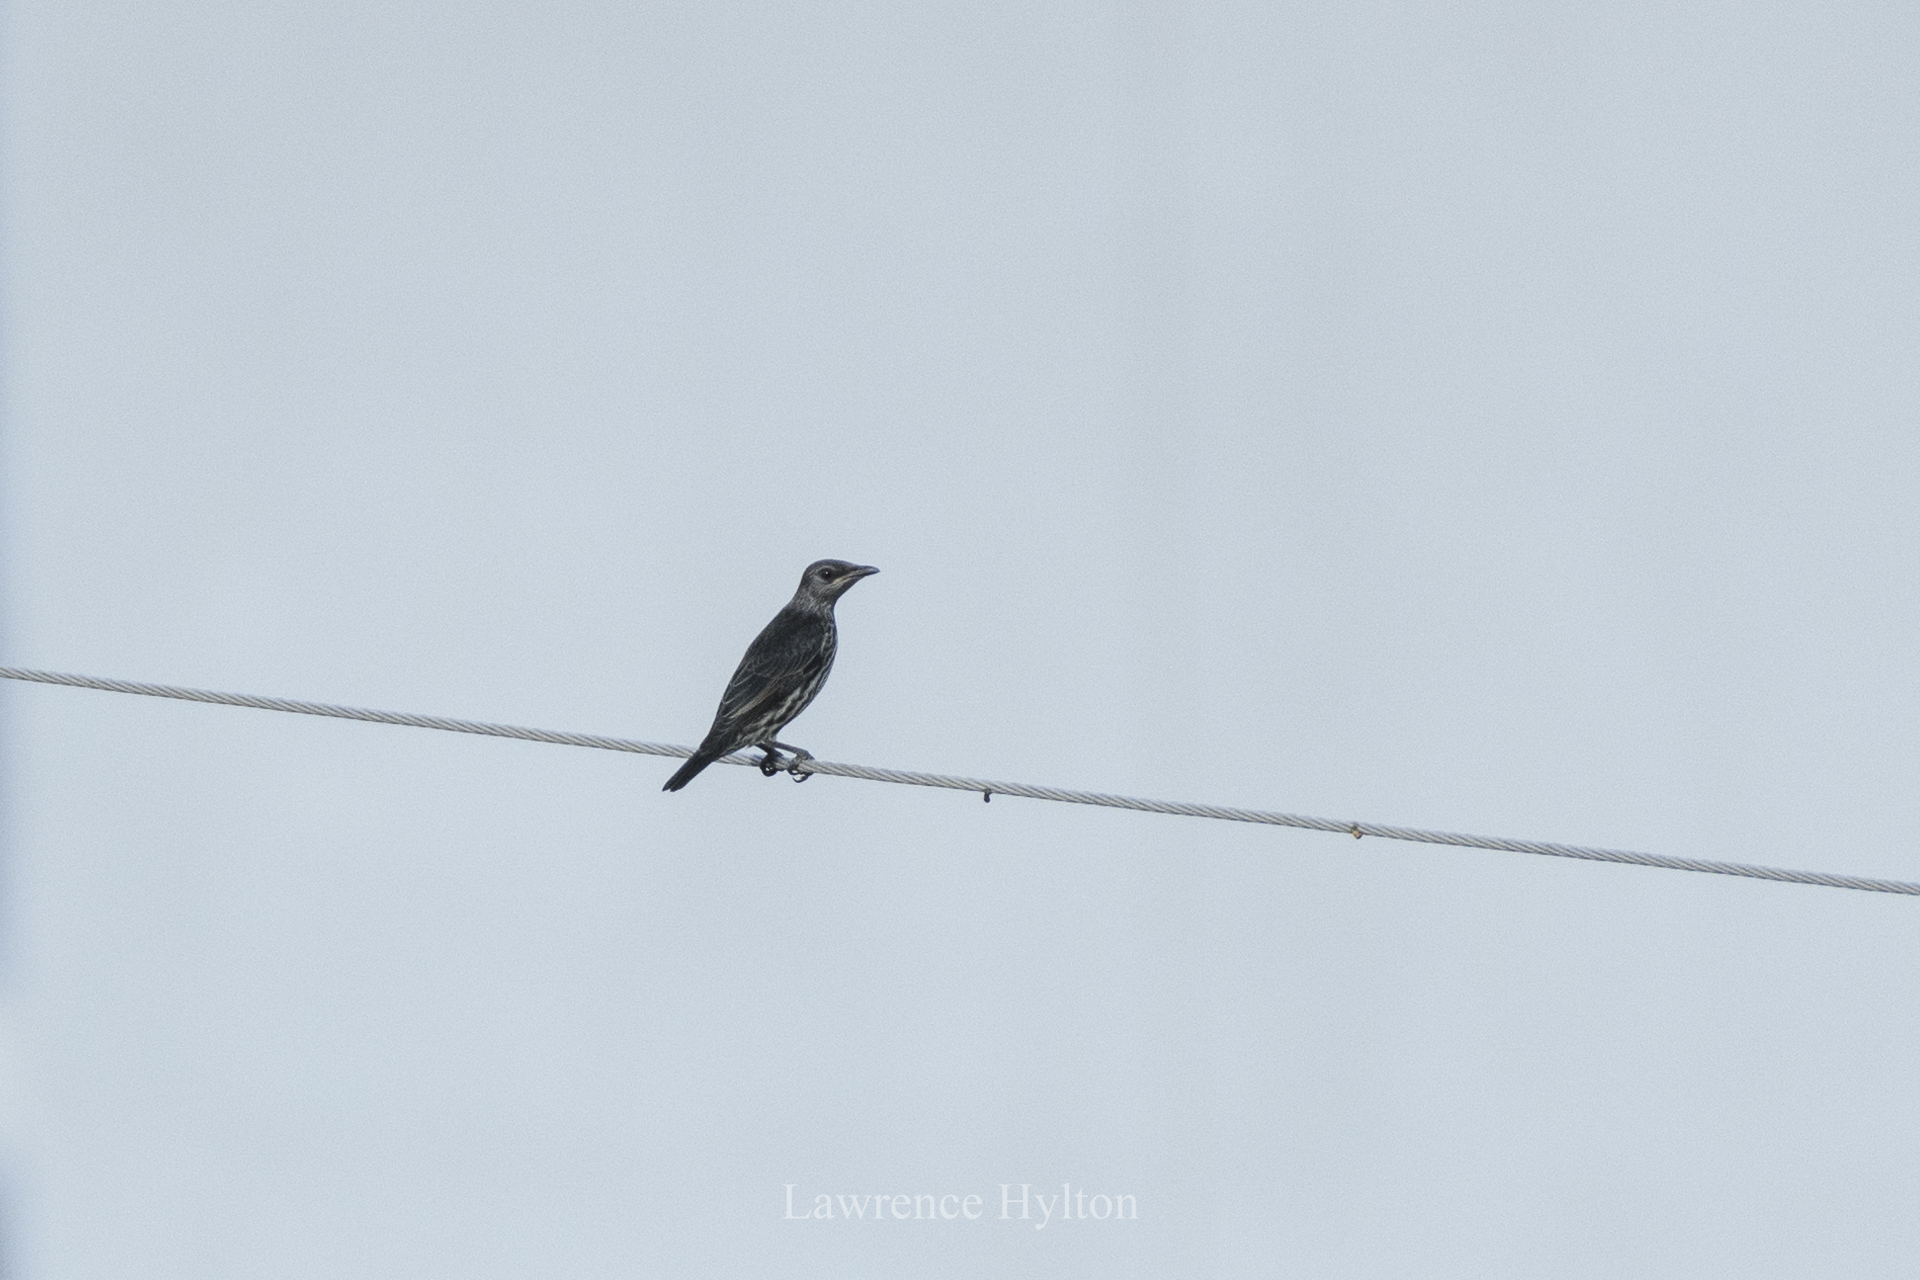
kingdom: Animalia
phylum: Chordata
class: Aves
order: Passeriformes
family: Sturnidae
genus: Aplonis
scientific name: Aplonis panayensis
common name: Asian glossy starling
